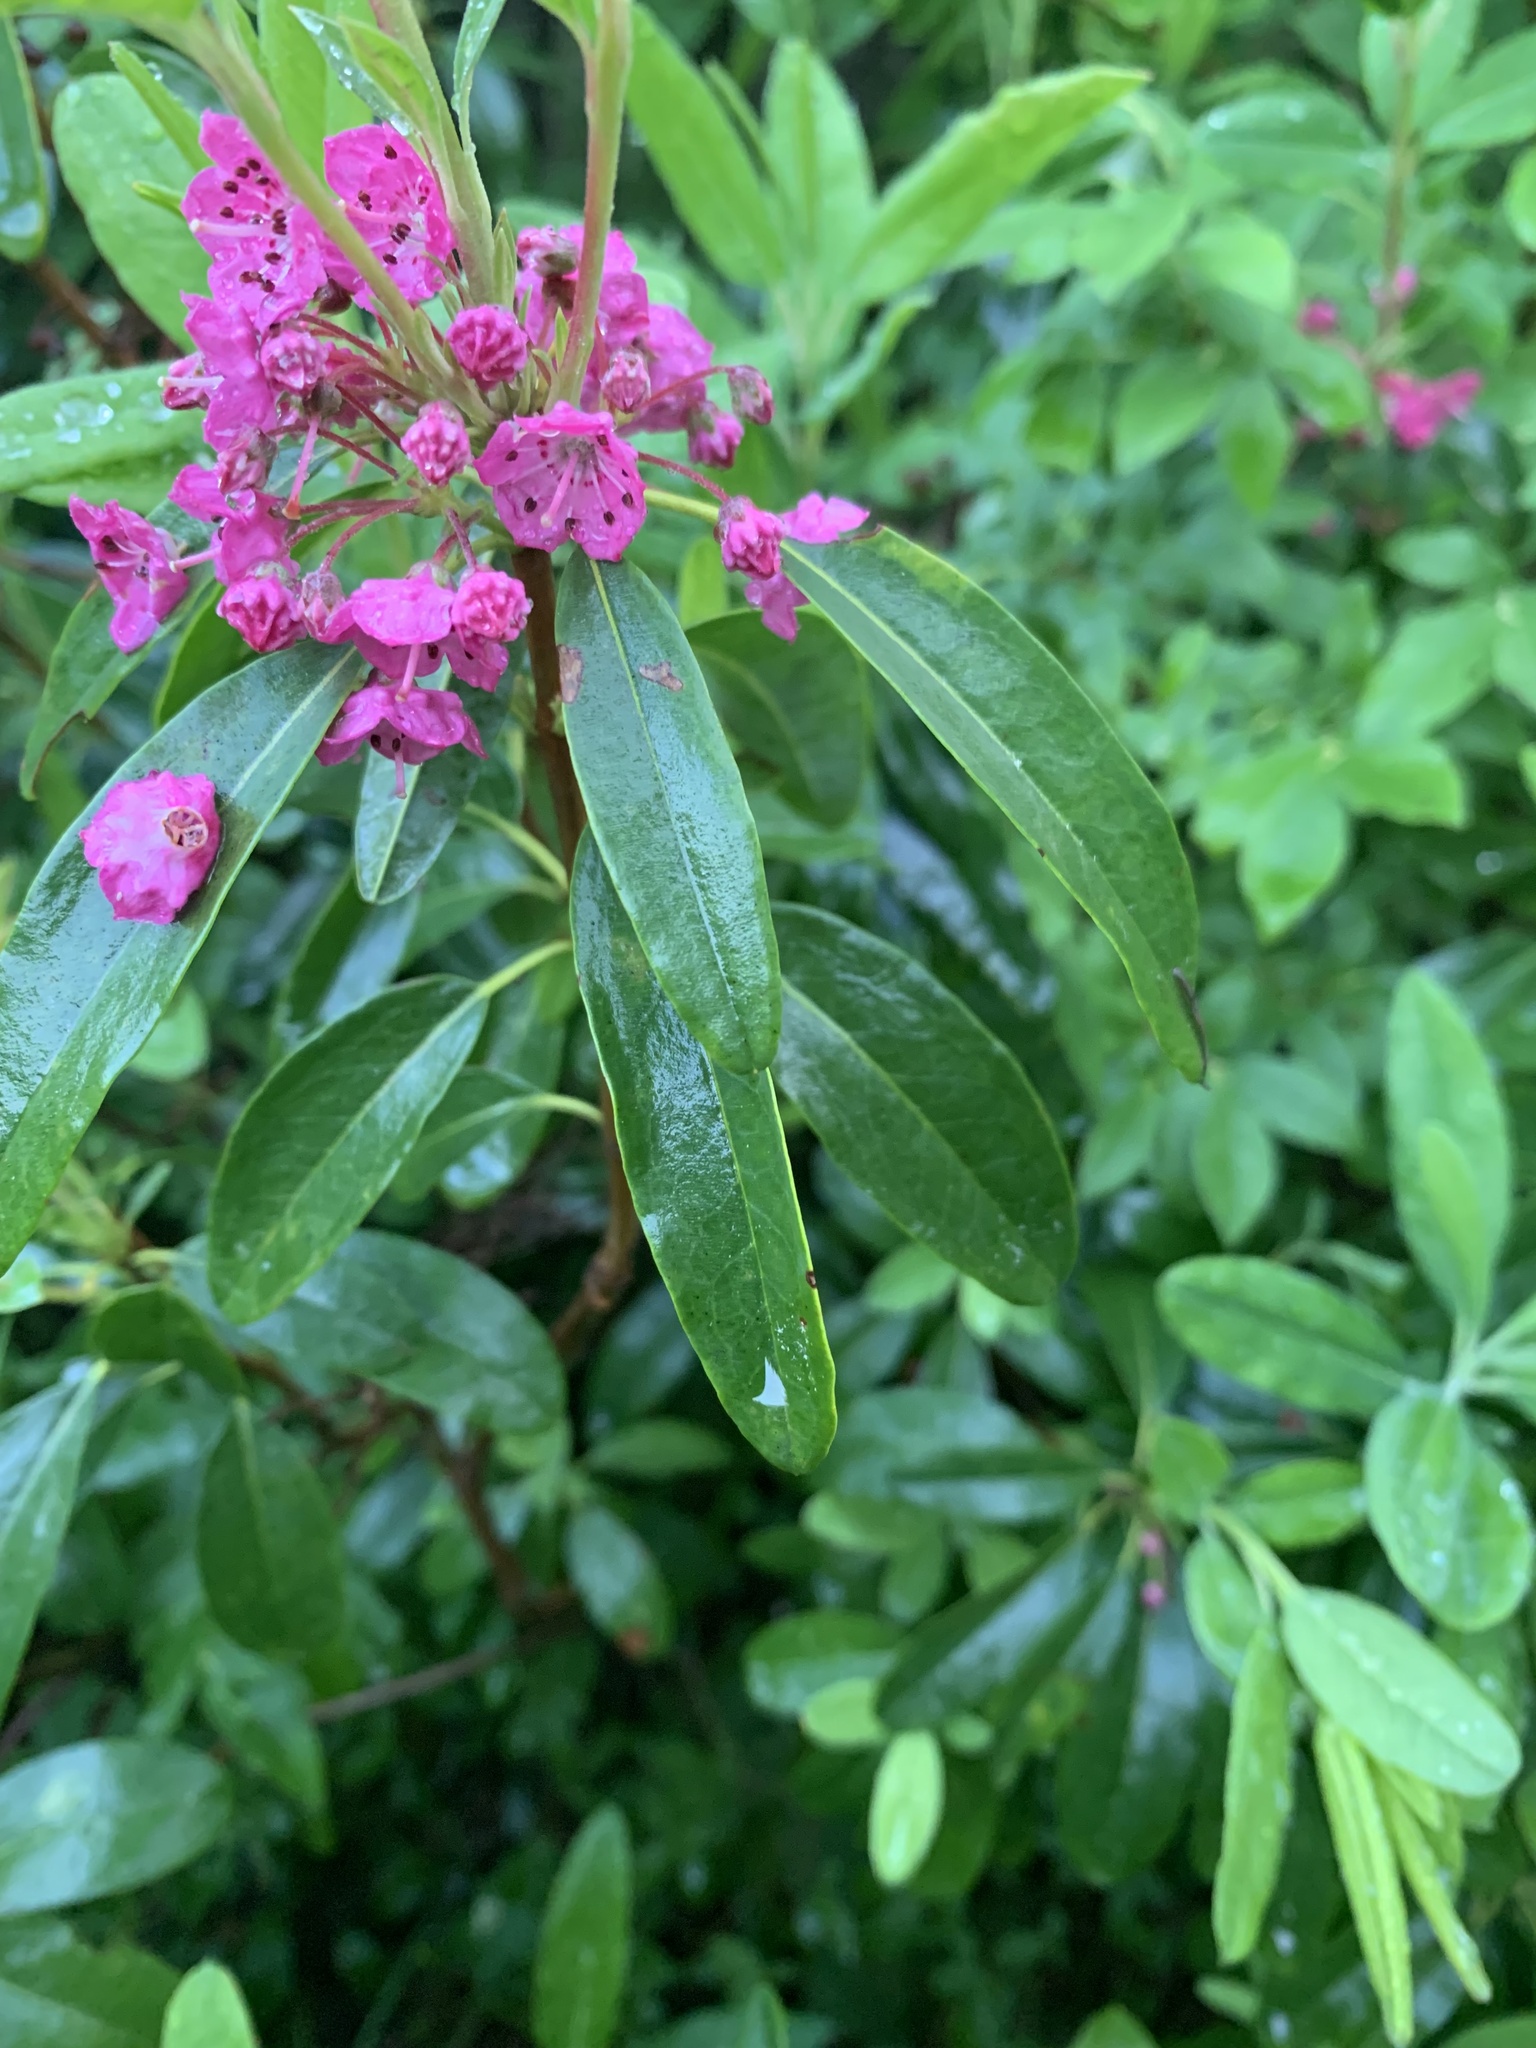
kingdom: Plantae
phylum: Tracheophyta
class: Magnoliopsida
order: Ericales
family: Ericaceae
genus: Kalmia
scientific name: Kalmia angustifolia
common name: Sheep-laurel
